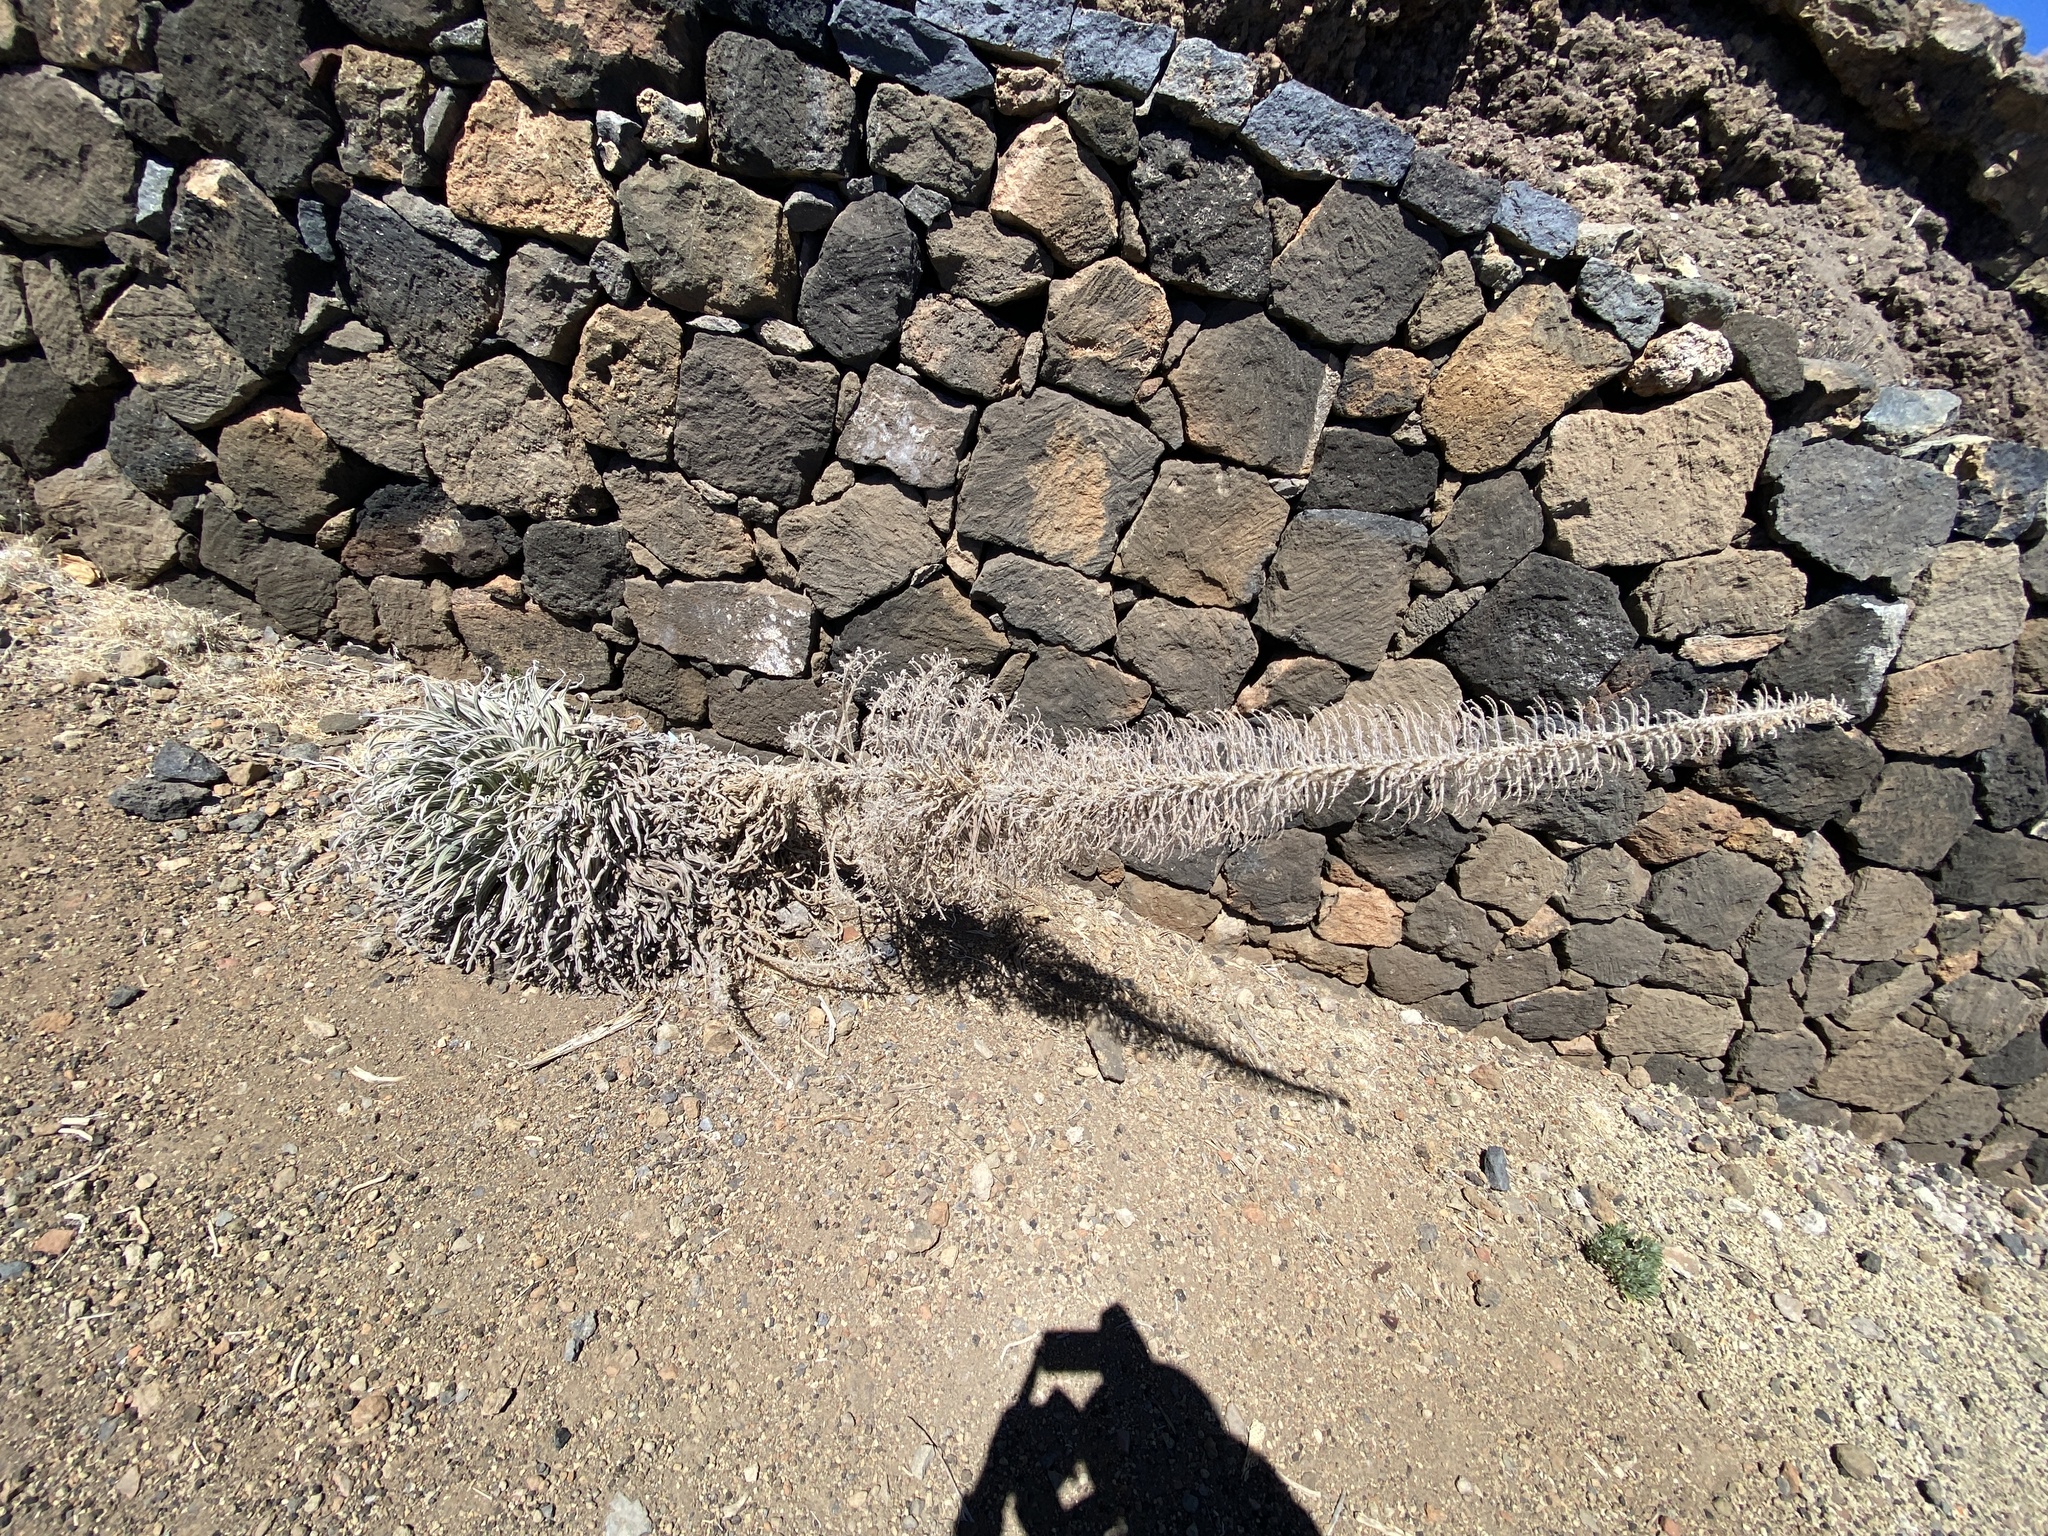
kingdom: Plantae
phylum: Tracheophyta
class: Magnoliopsida
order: Boraginales
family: Boraginaceae
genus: Echium
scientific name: Echium wildpretii
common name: Tower-of-jewels
